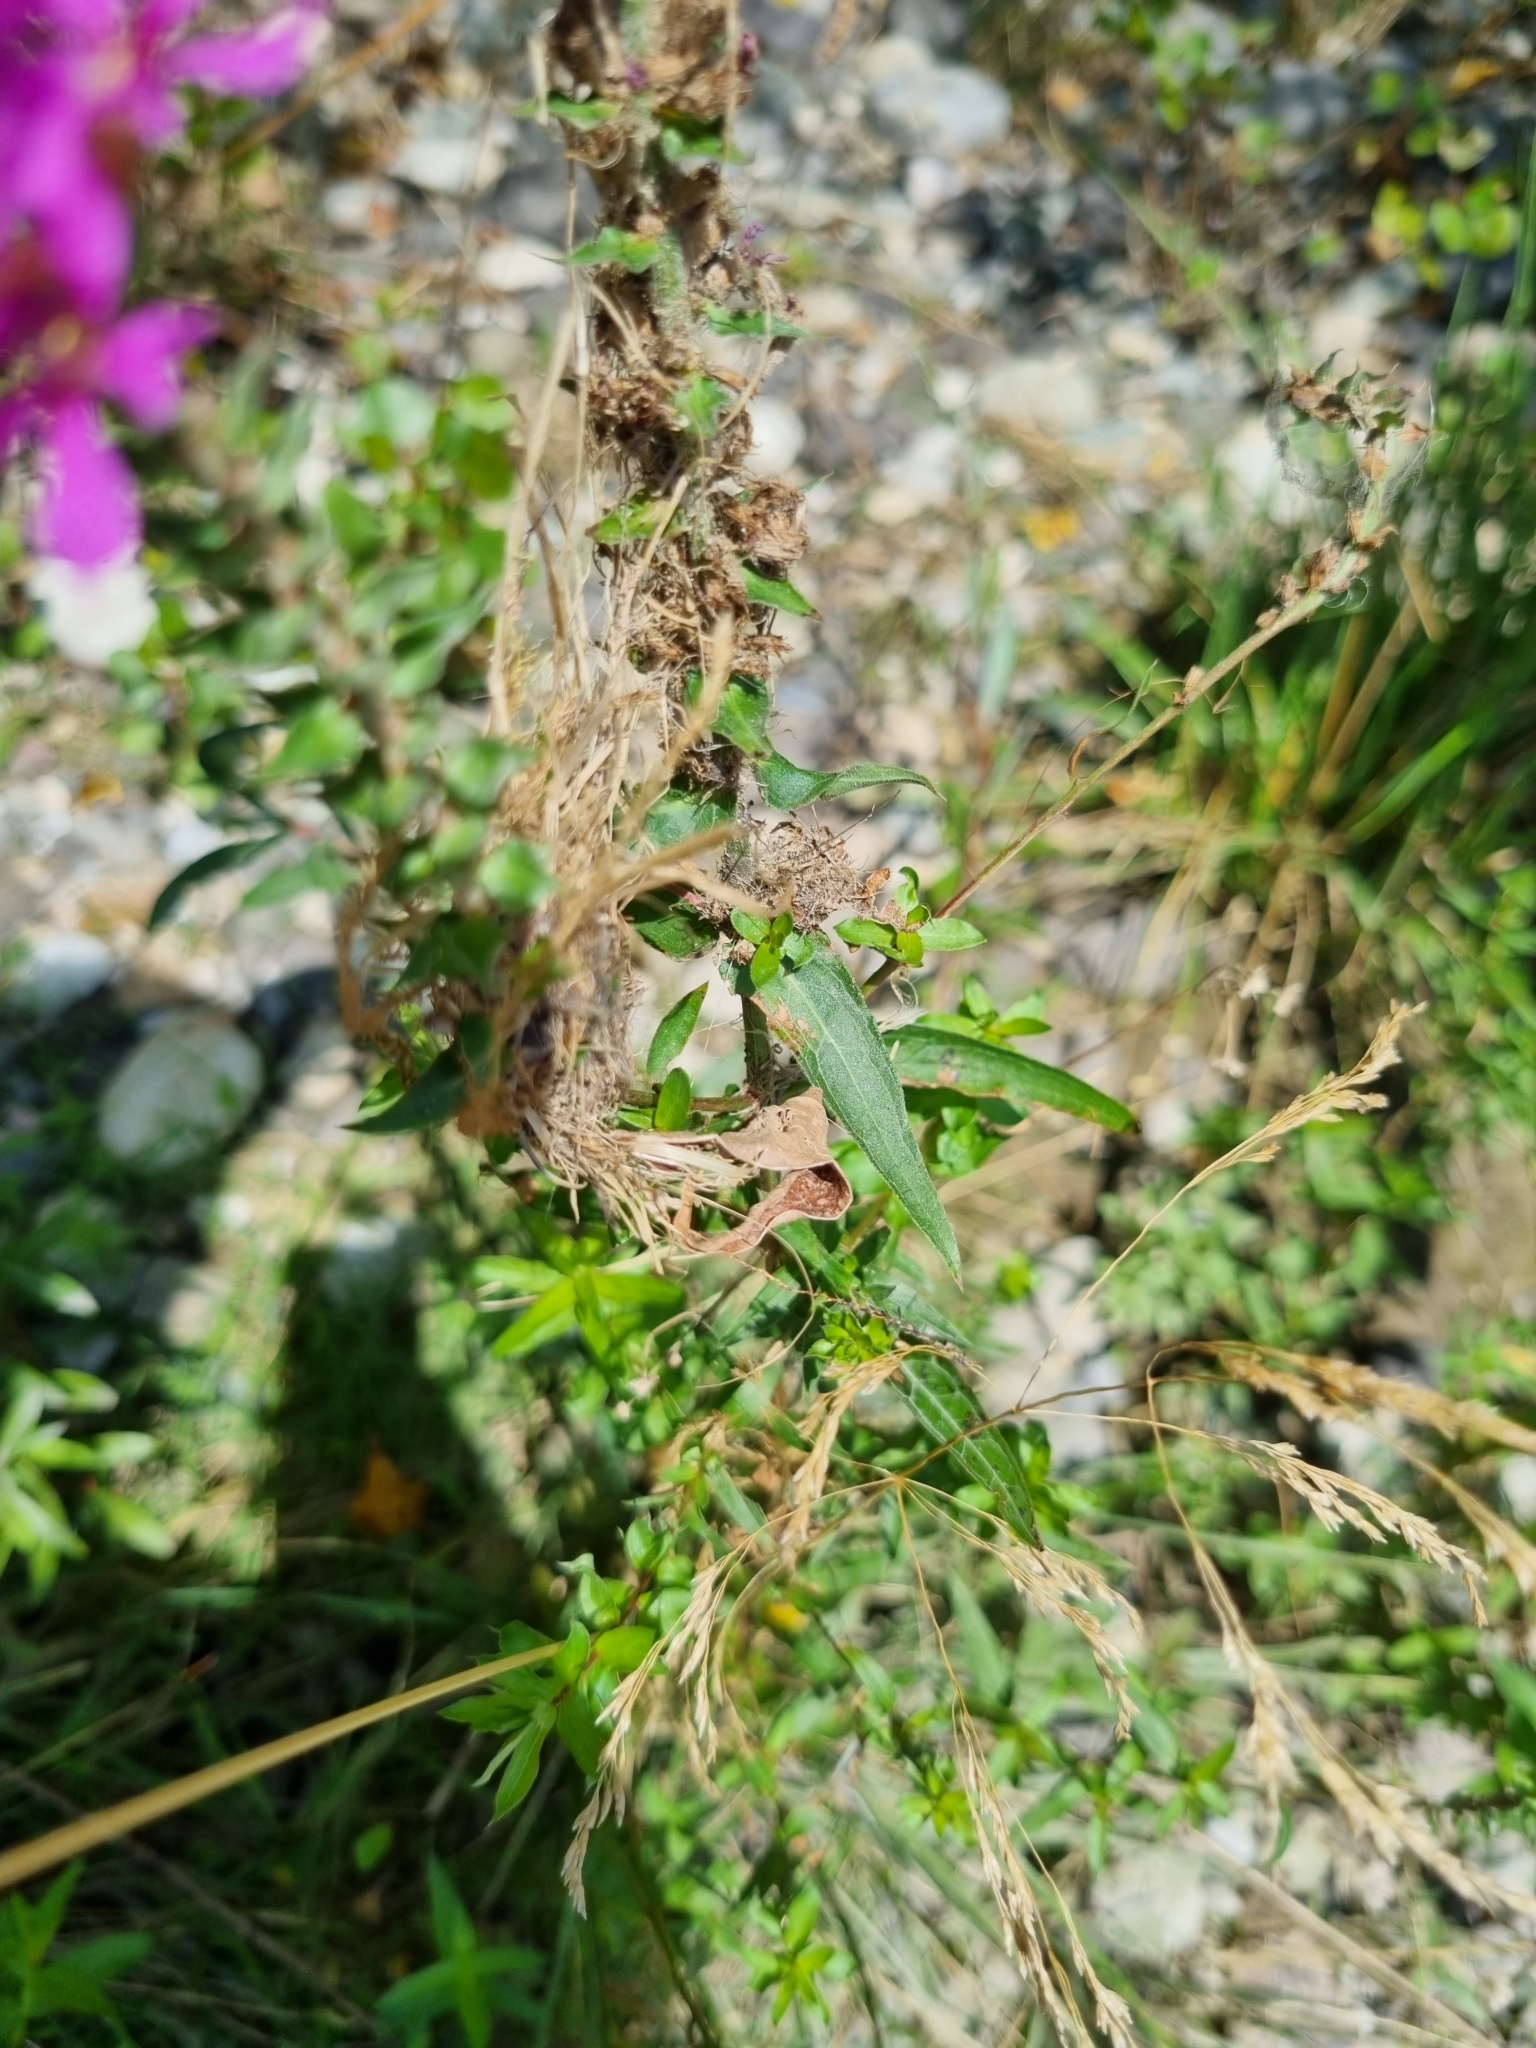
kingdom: Plantae
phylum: Tracheophyta
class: Magnoliopsida
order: Myrtales
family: Lythraceae
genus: Lythrum
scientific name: Lythrum salicaria
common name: Purple loosestrife
